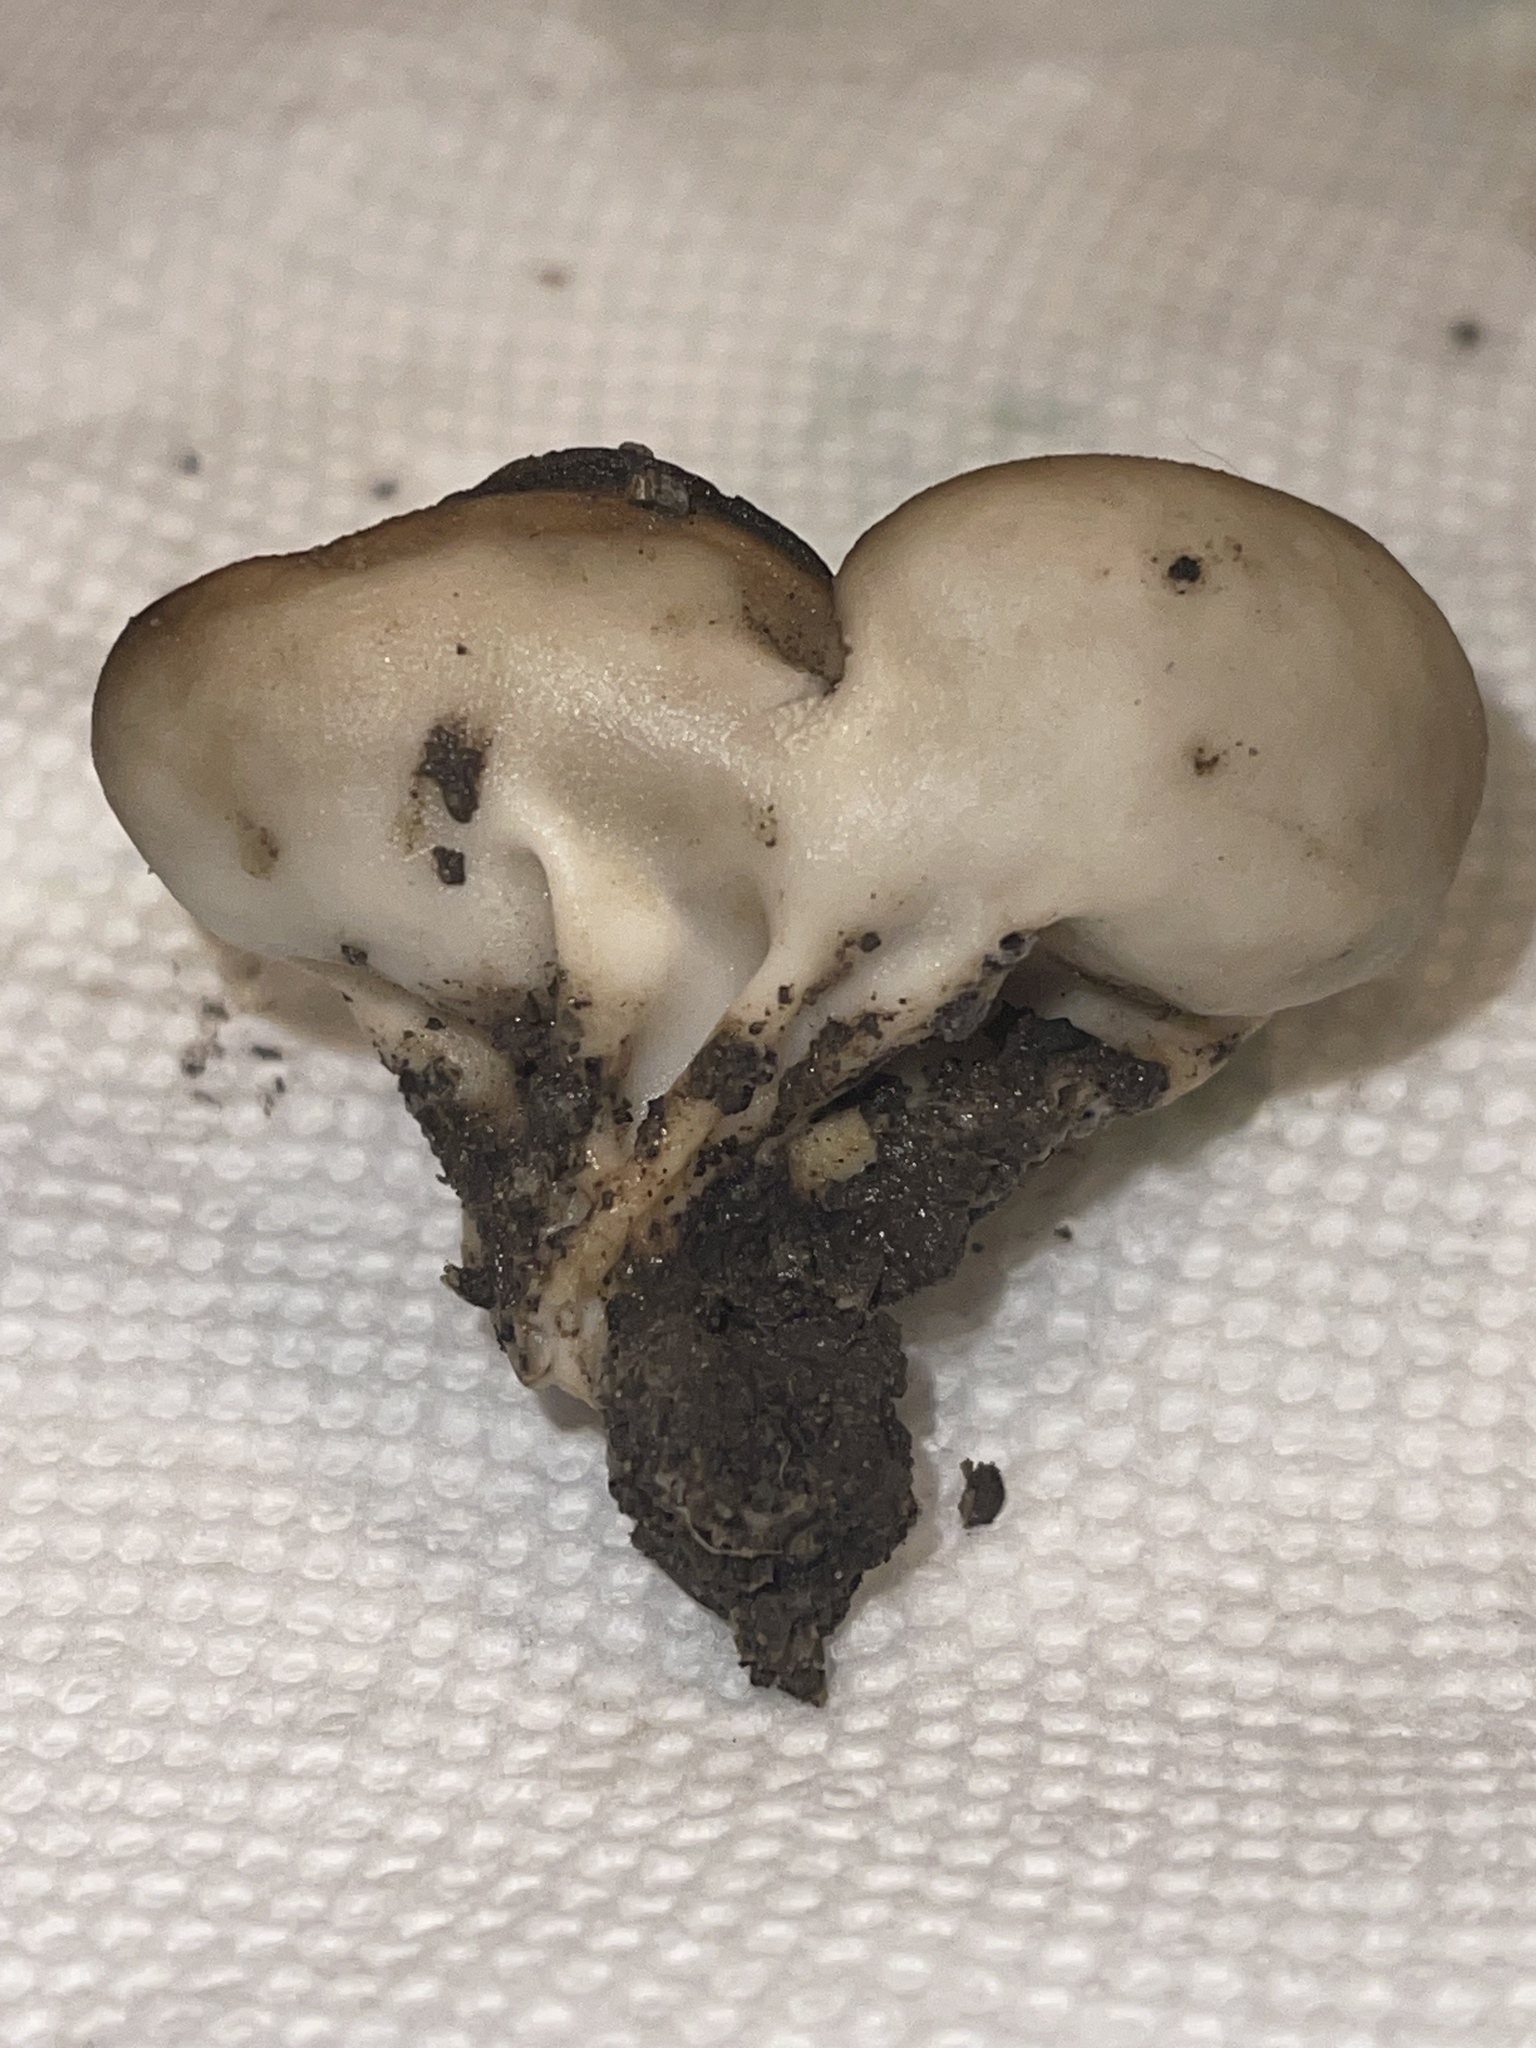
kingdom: Fungi
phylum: Ascomycota
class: Pezizomycetes
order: Pezizales
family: Helvellaceae
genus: Helvella
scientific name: Helvella acetabulum
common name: Vinegar cup
